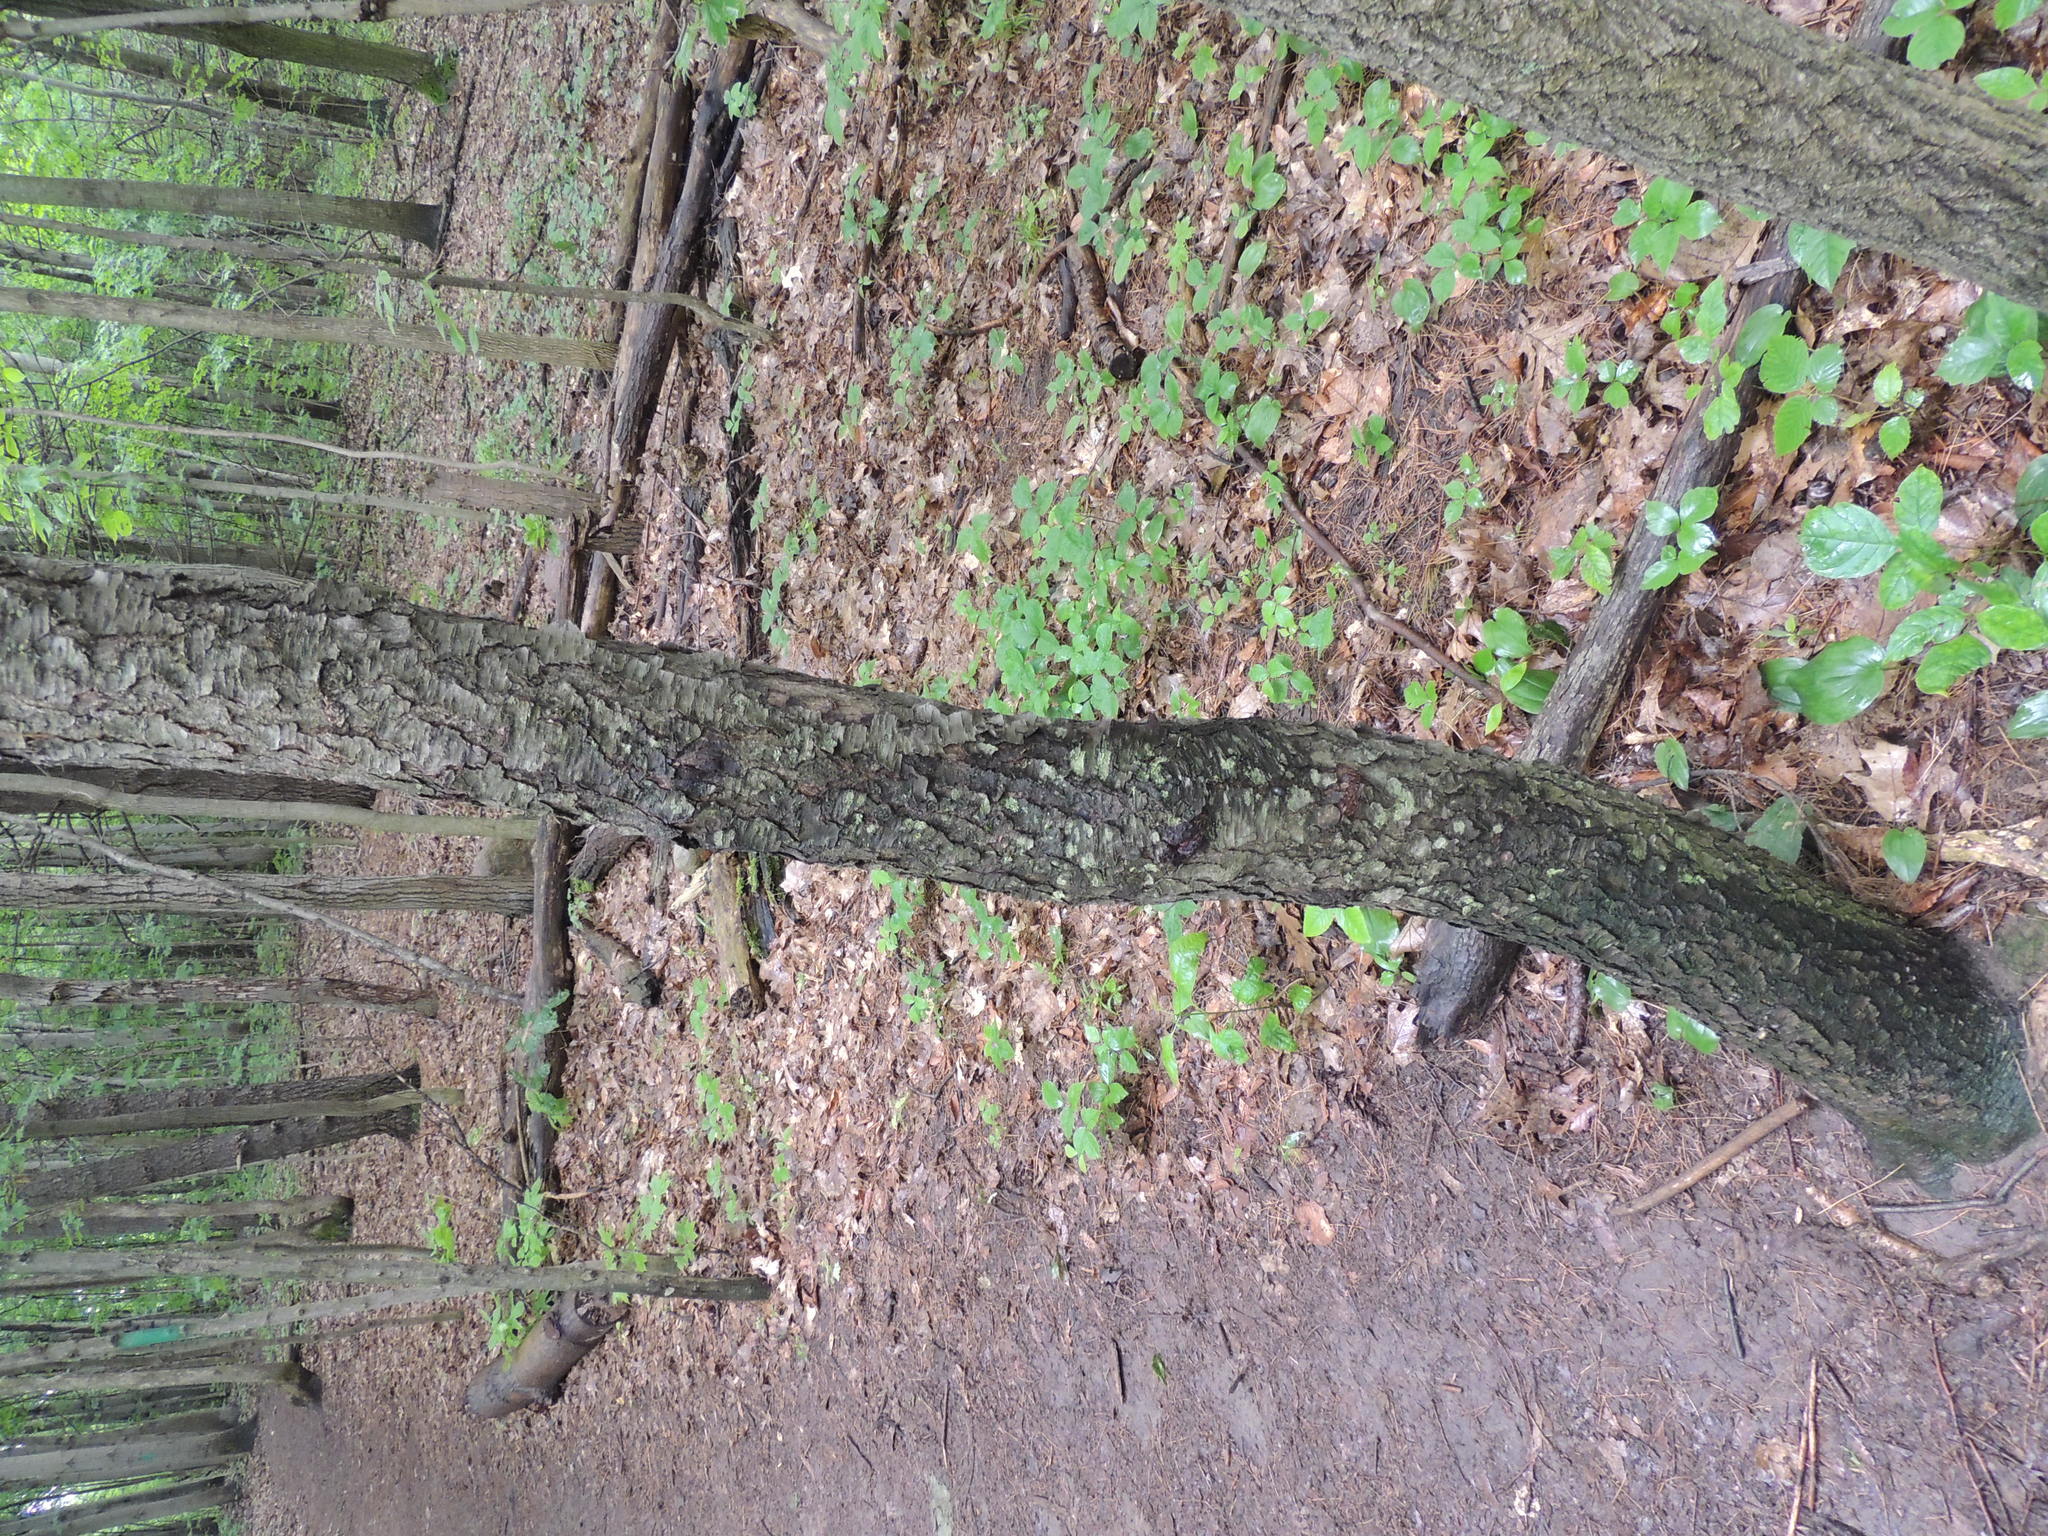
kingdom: Plantae
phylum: Tracheophyta
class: Magnoliopsida
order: Rosales
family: Rosaceae
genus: Prunus
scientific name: Prunus serotina
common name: Black cherry
